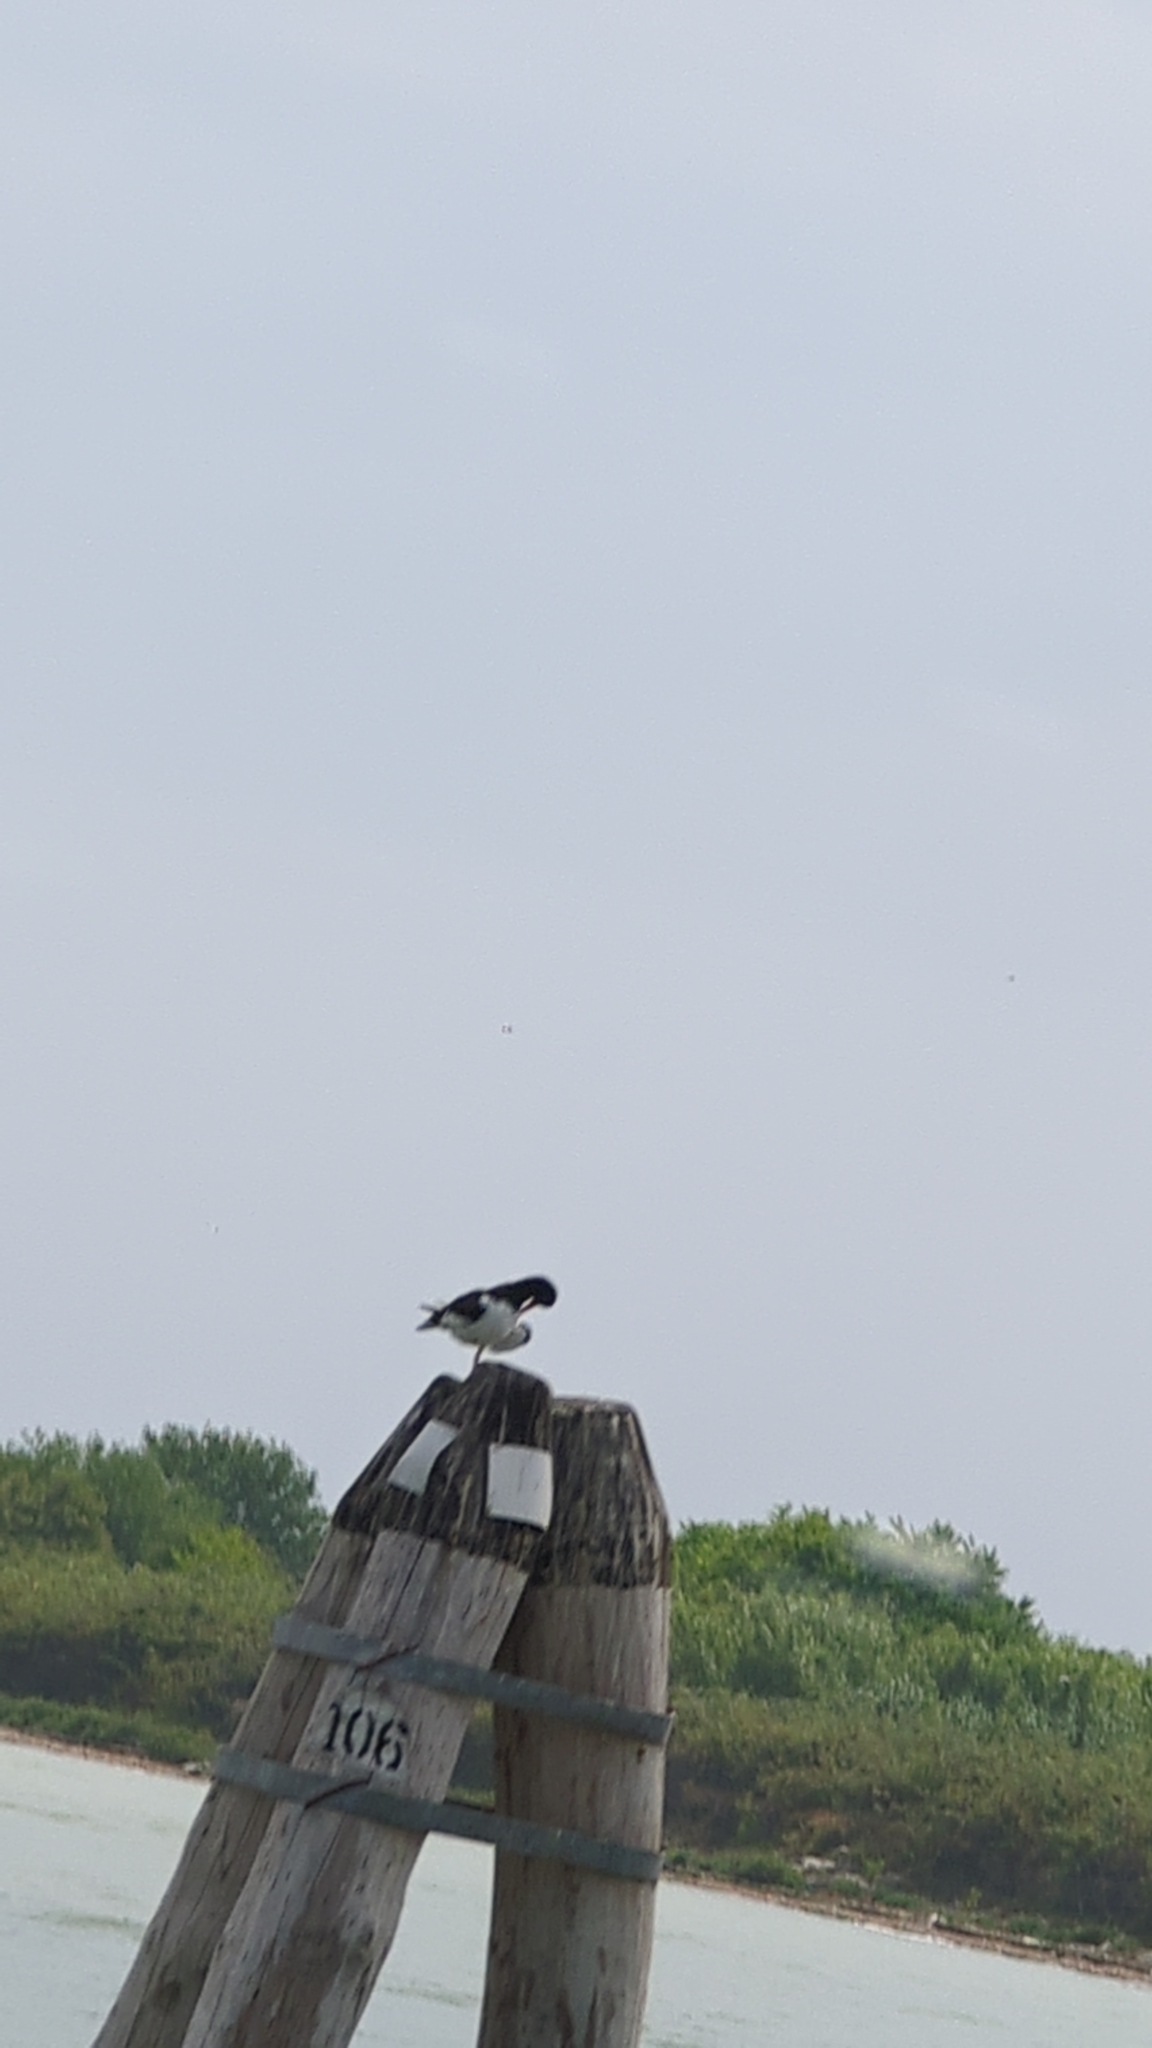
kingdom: Animalia
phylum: Chordata
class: Aves
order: Charadriiformes
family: Haematopodidae
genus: Haematopus
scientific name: Haematopus ostralegus
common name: Eurasian oystercatcher
